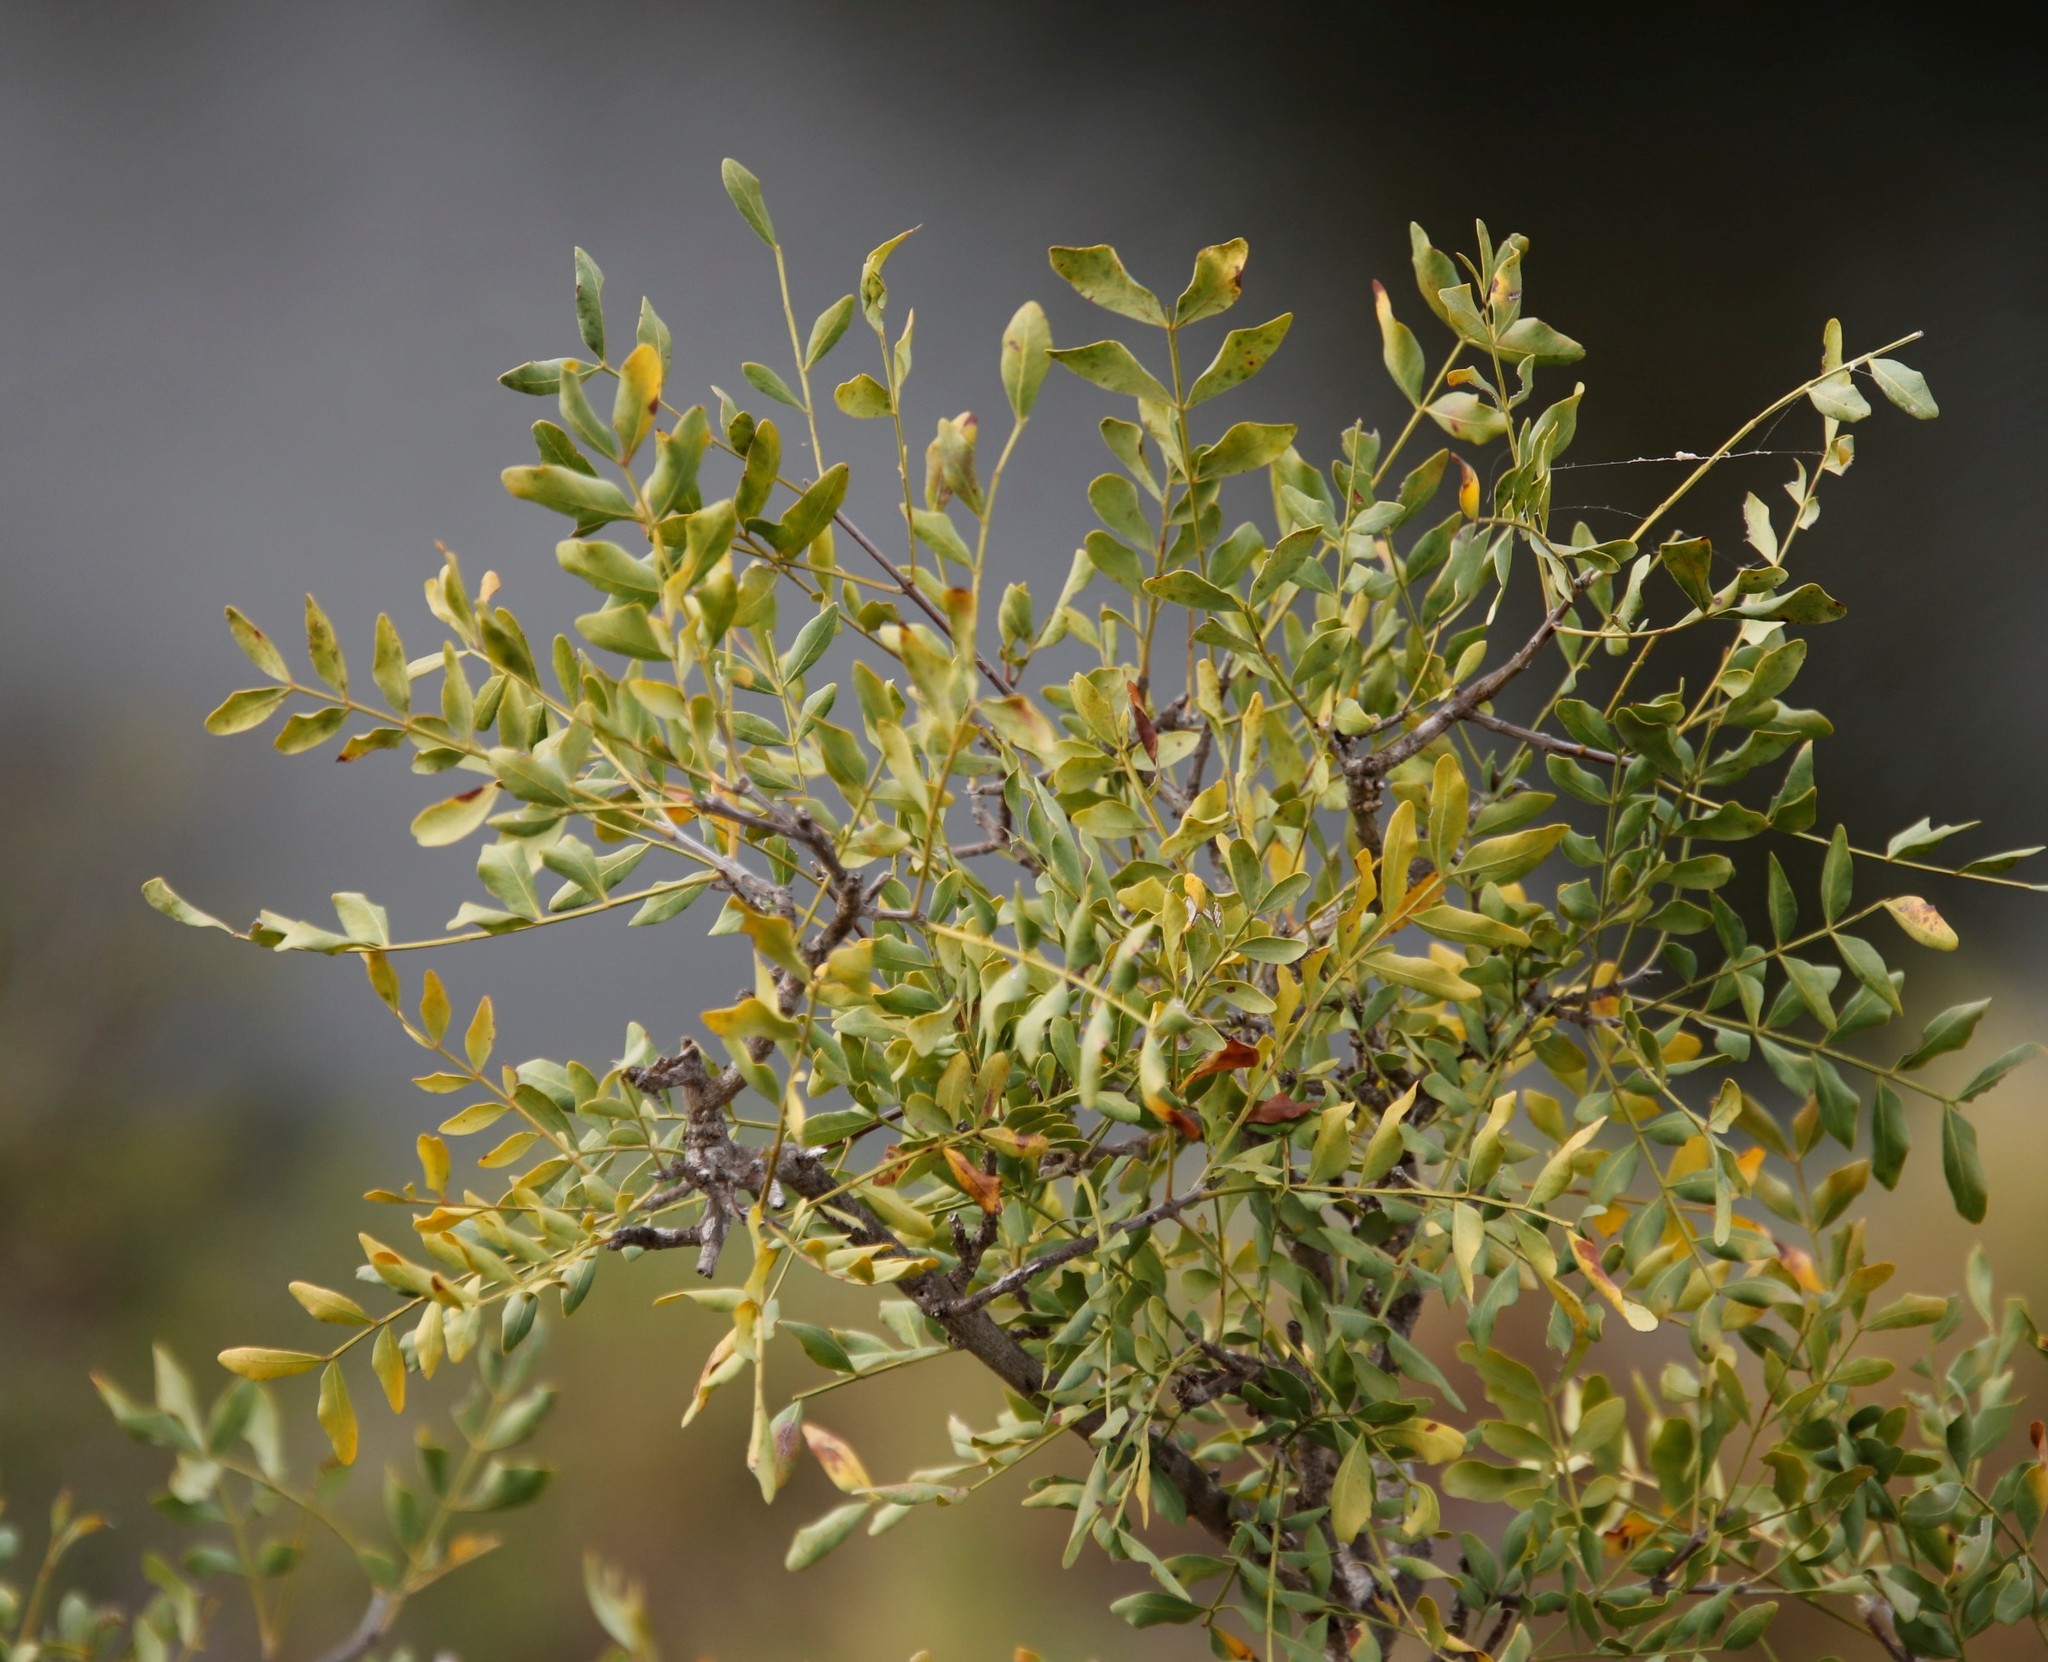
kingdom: Plantae
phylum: Tracheophyta
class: Magnoliopsida
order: Sapindales
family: Rutaceae
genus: Ptaeroxylon
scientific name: Ptaeroxylon obliquum
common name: Sneezewood
